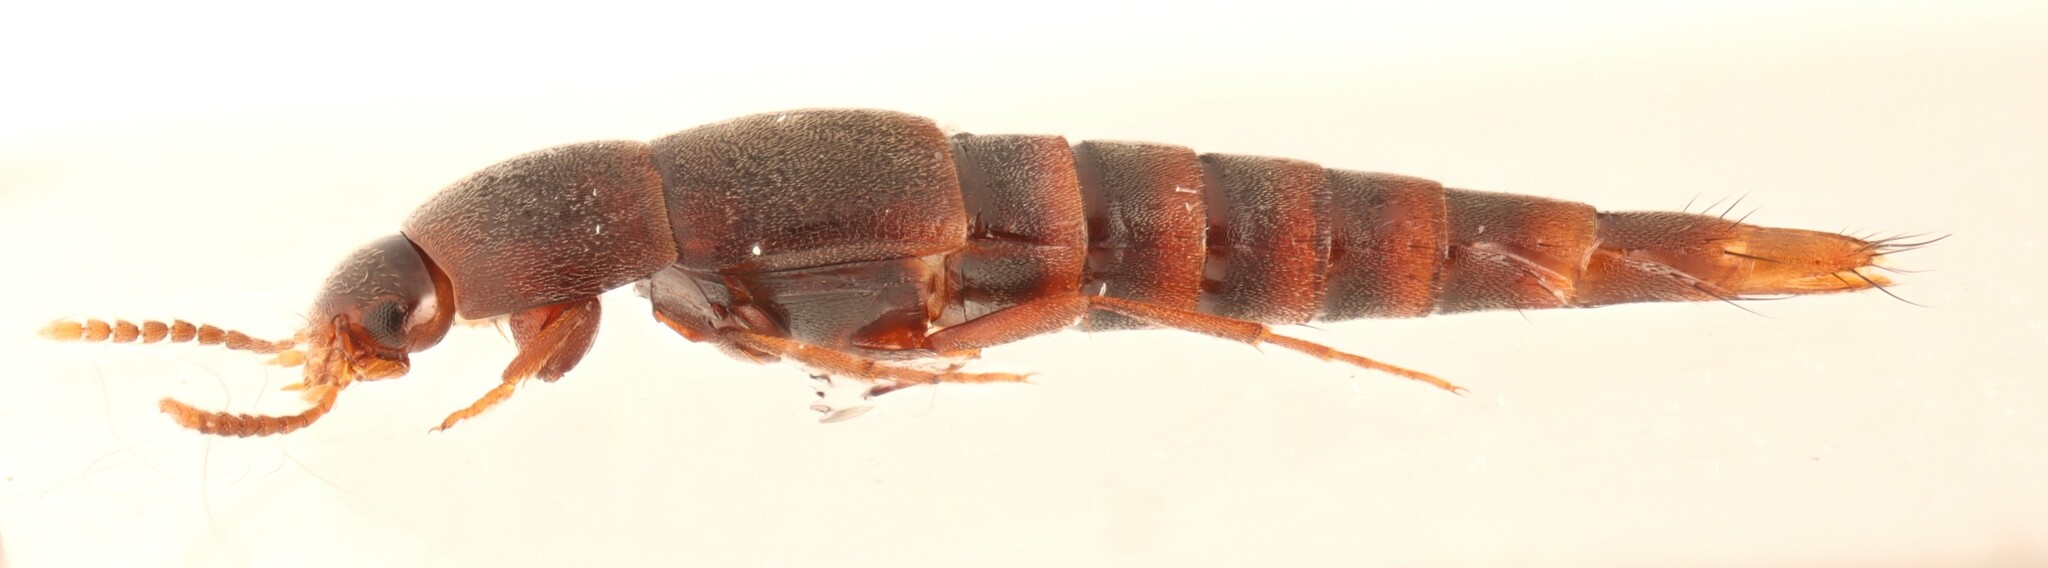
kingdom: Animalia
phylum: Arthropoda
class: Insecta
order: Coleoptera
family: Staphylinidae
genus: Sepedophilus
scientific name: Sepedophilus testaceus
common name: Staph beetle
